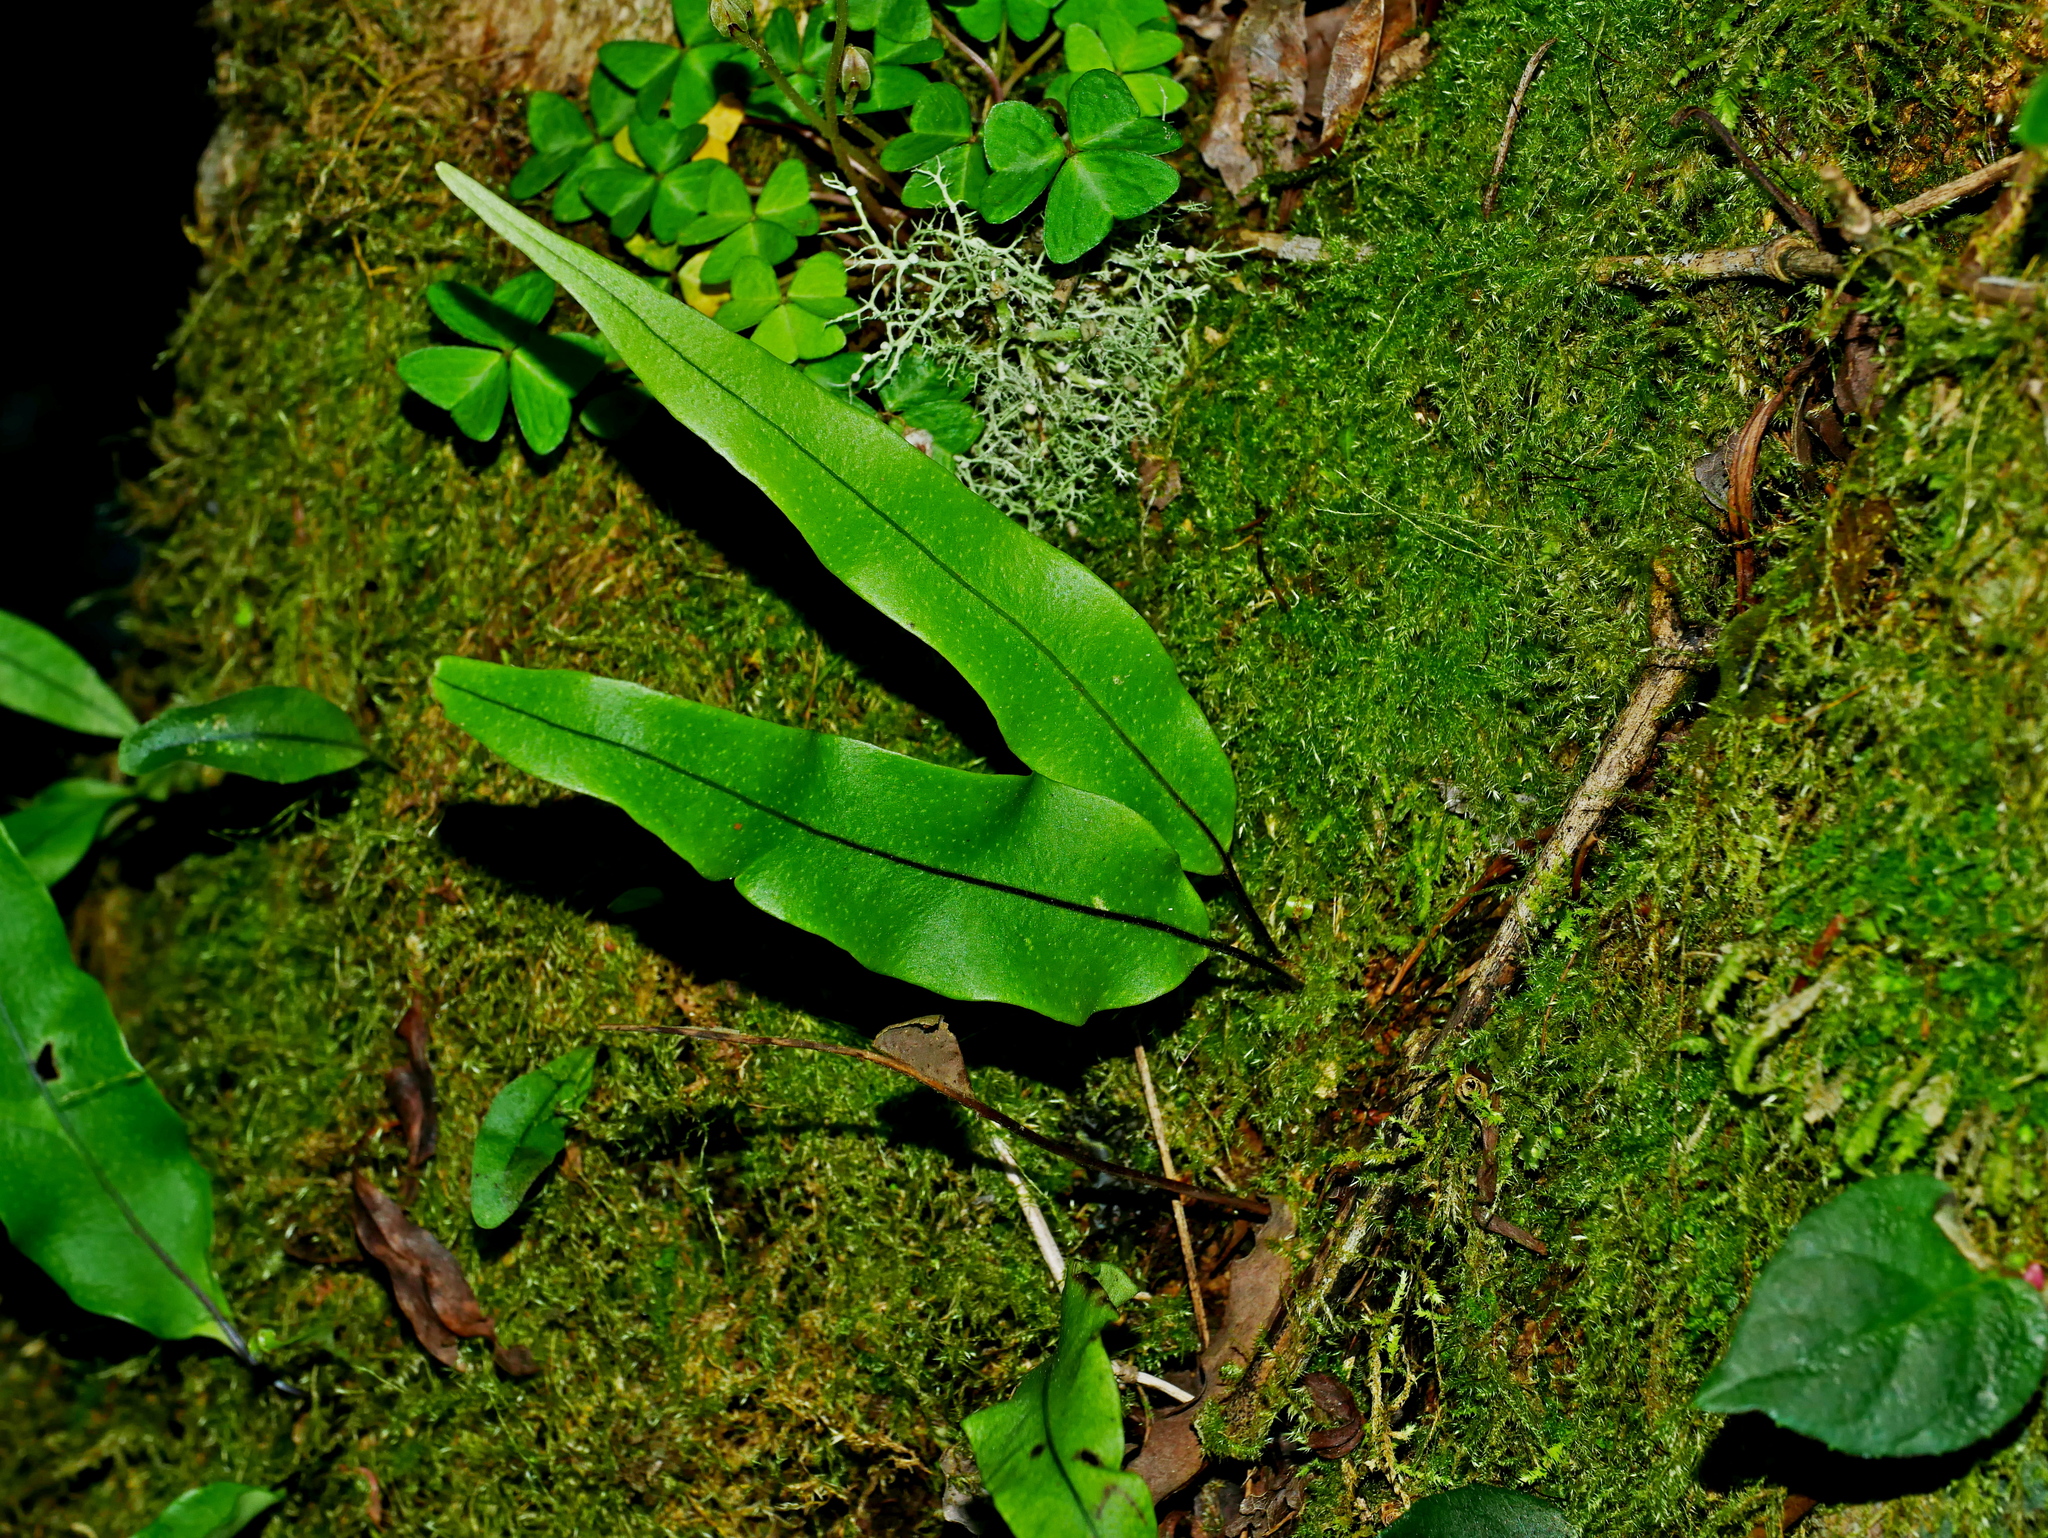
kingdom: Plantae
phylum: Tracheophyta
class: Polypodiopsida
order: Polypodiales
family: Polypodiaceae
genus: Lepisorus
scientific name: Lepisorus obscurevenulosus
